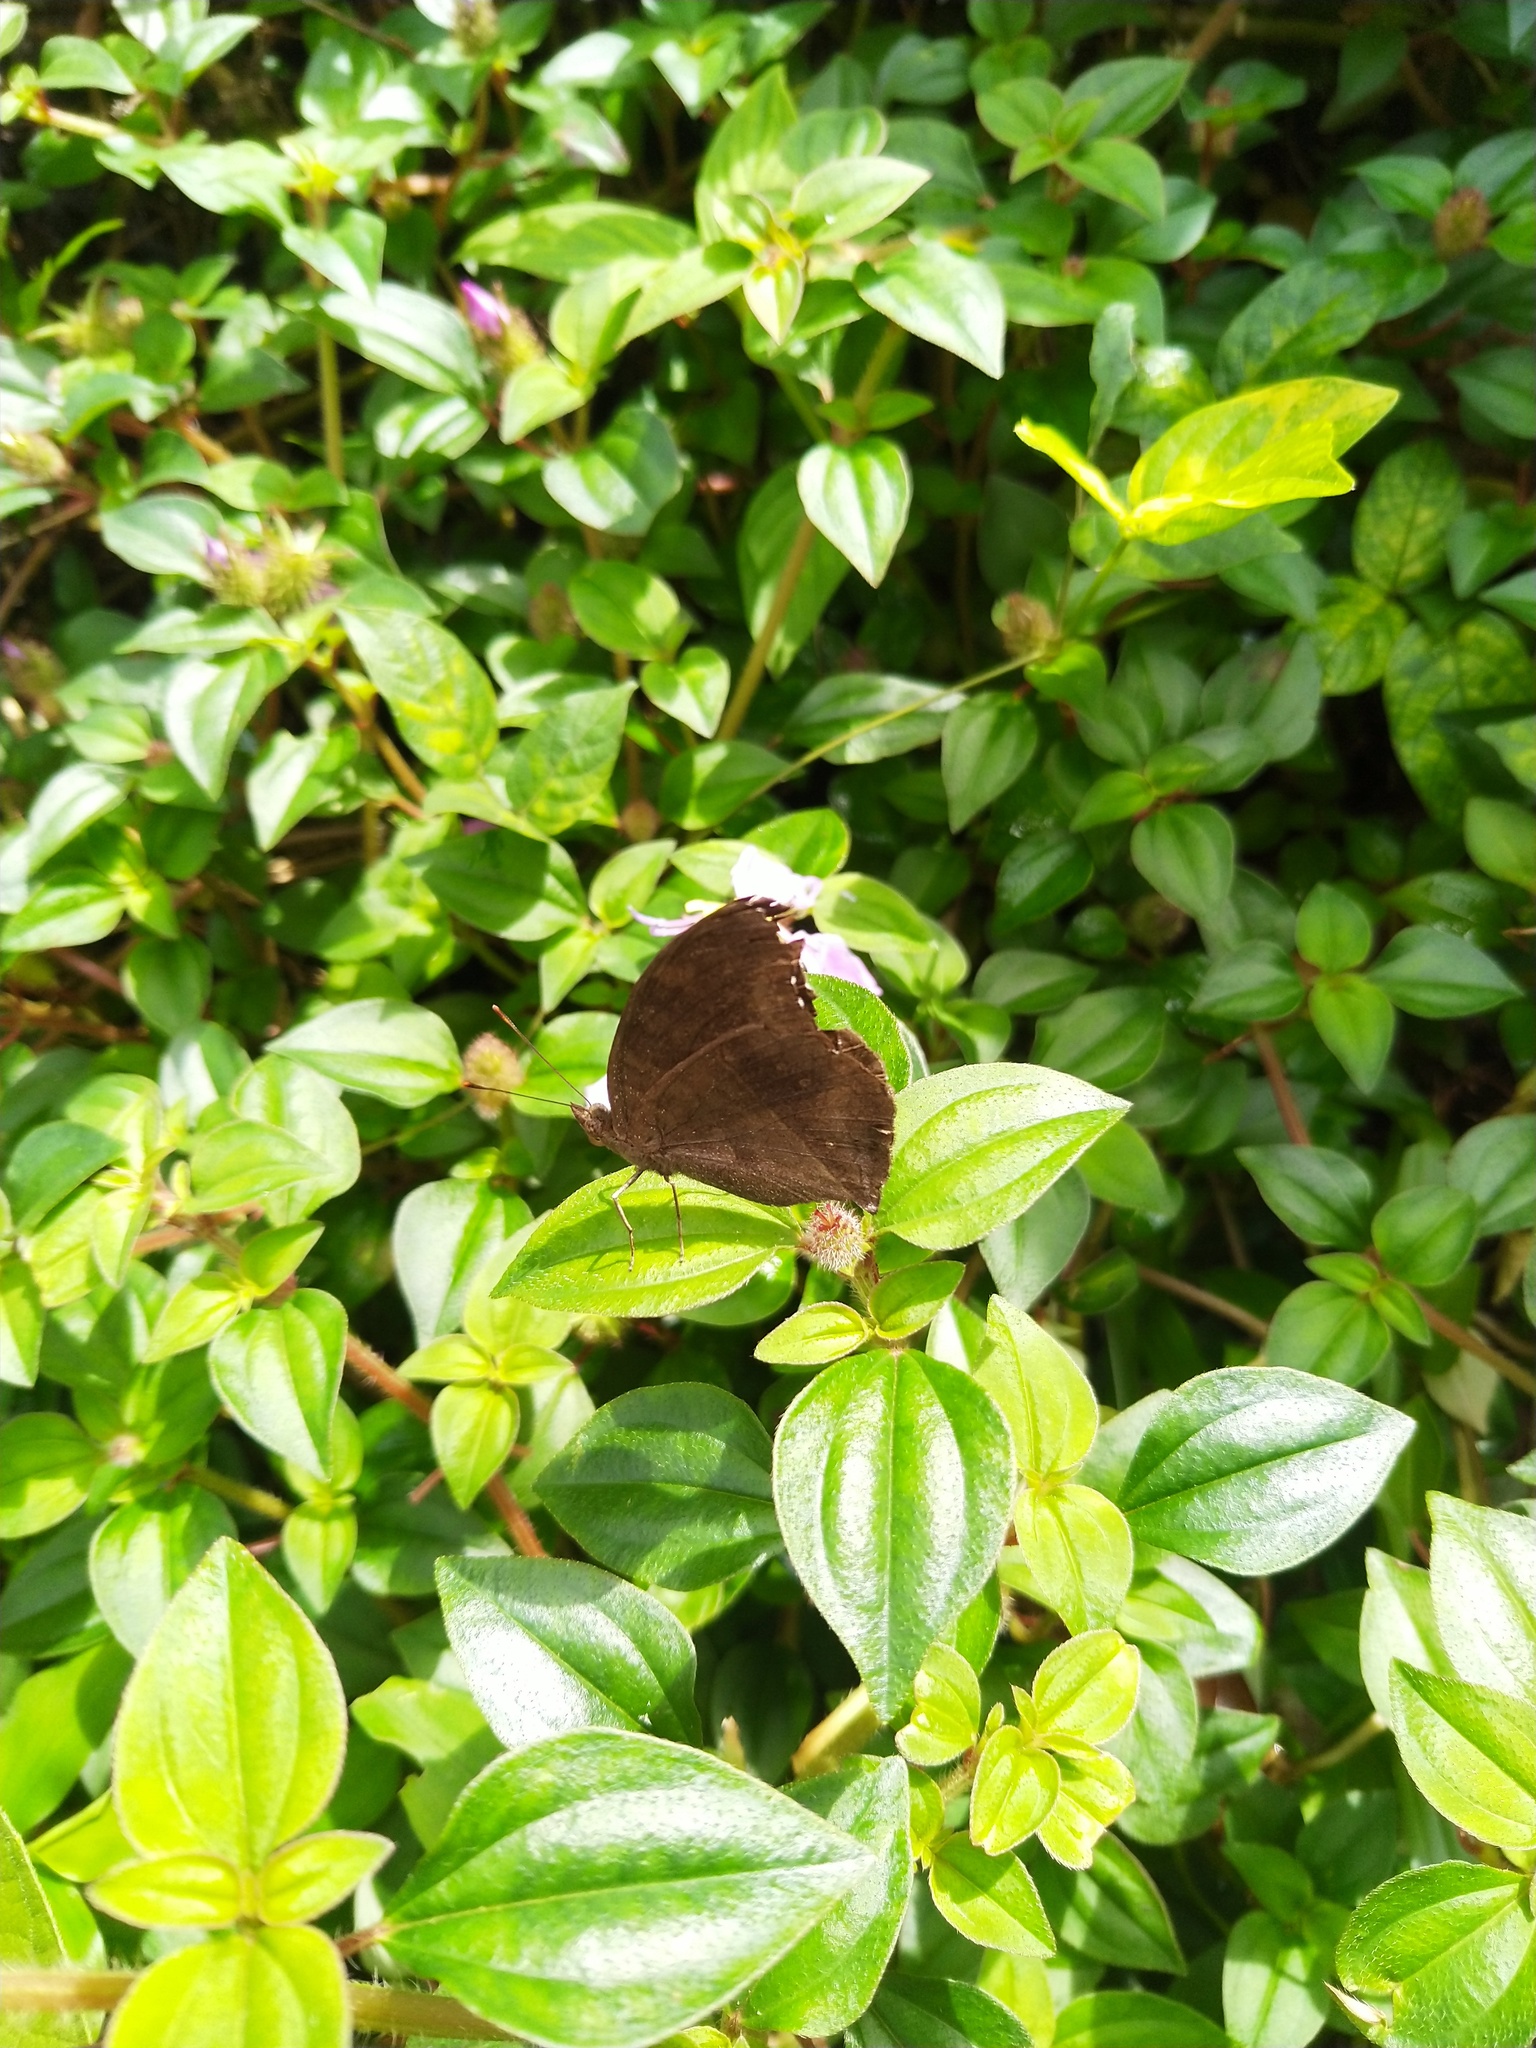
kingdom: Animalia
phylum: Arthropoda
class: Insecta
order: Lepidoptera
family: Nymphalidae
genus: Junonia
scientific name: Junonia iphita
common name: Chocolate pansy
